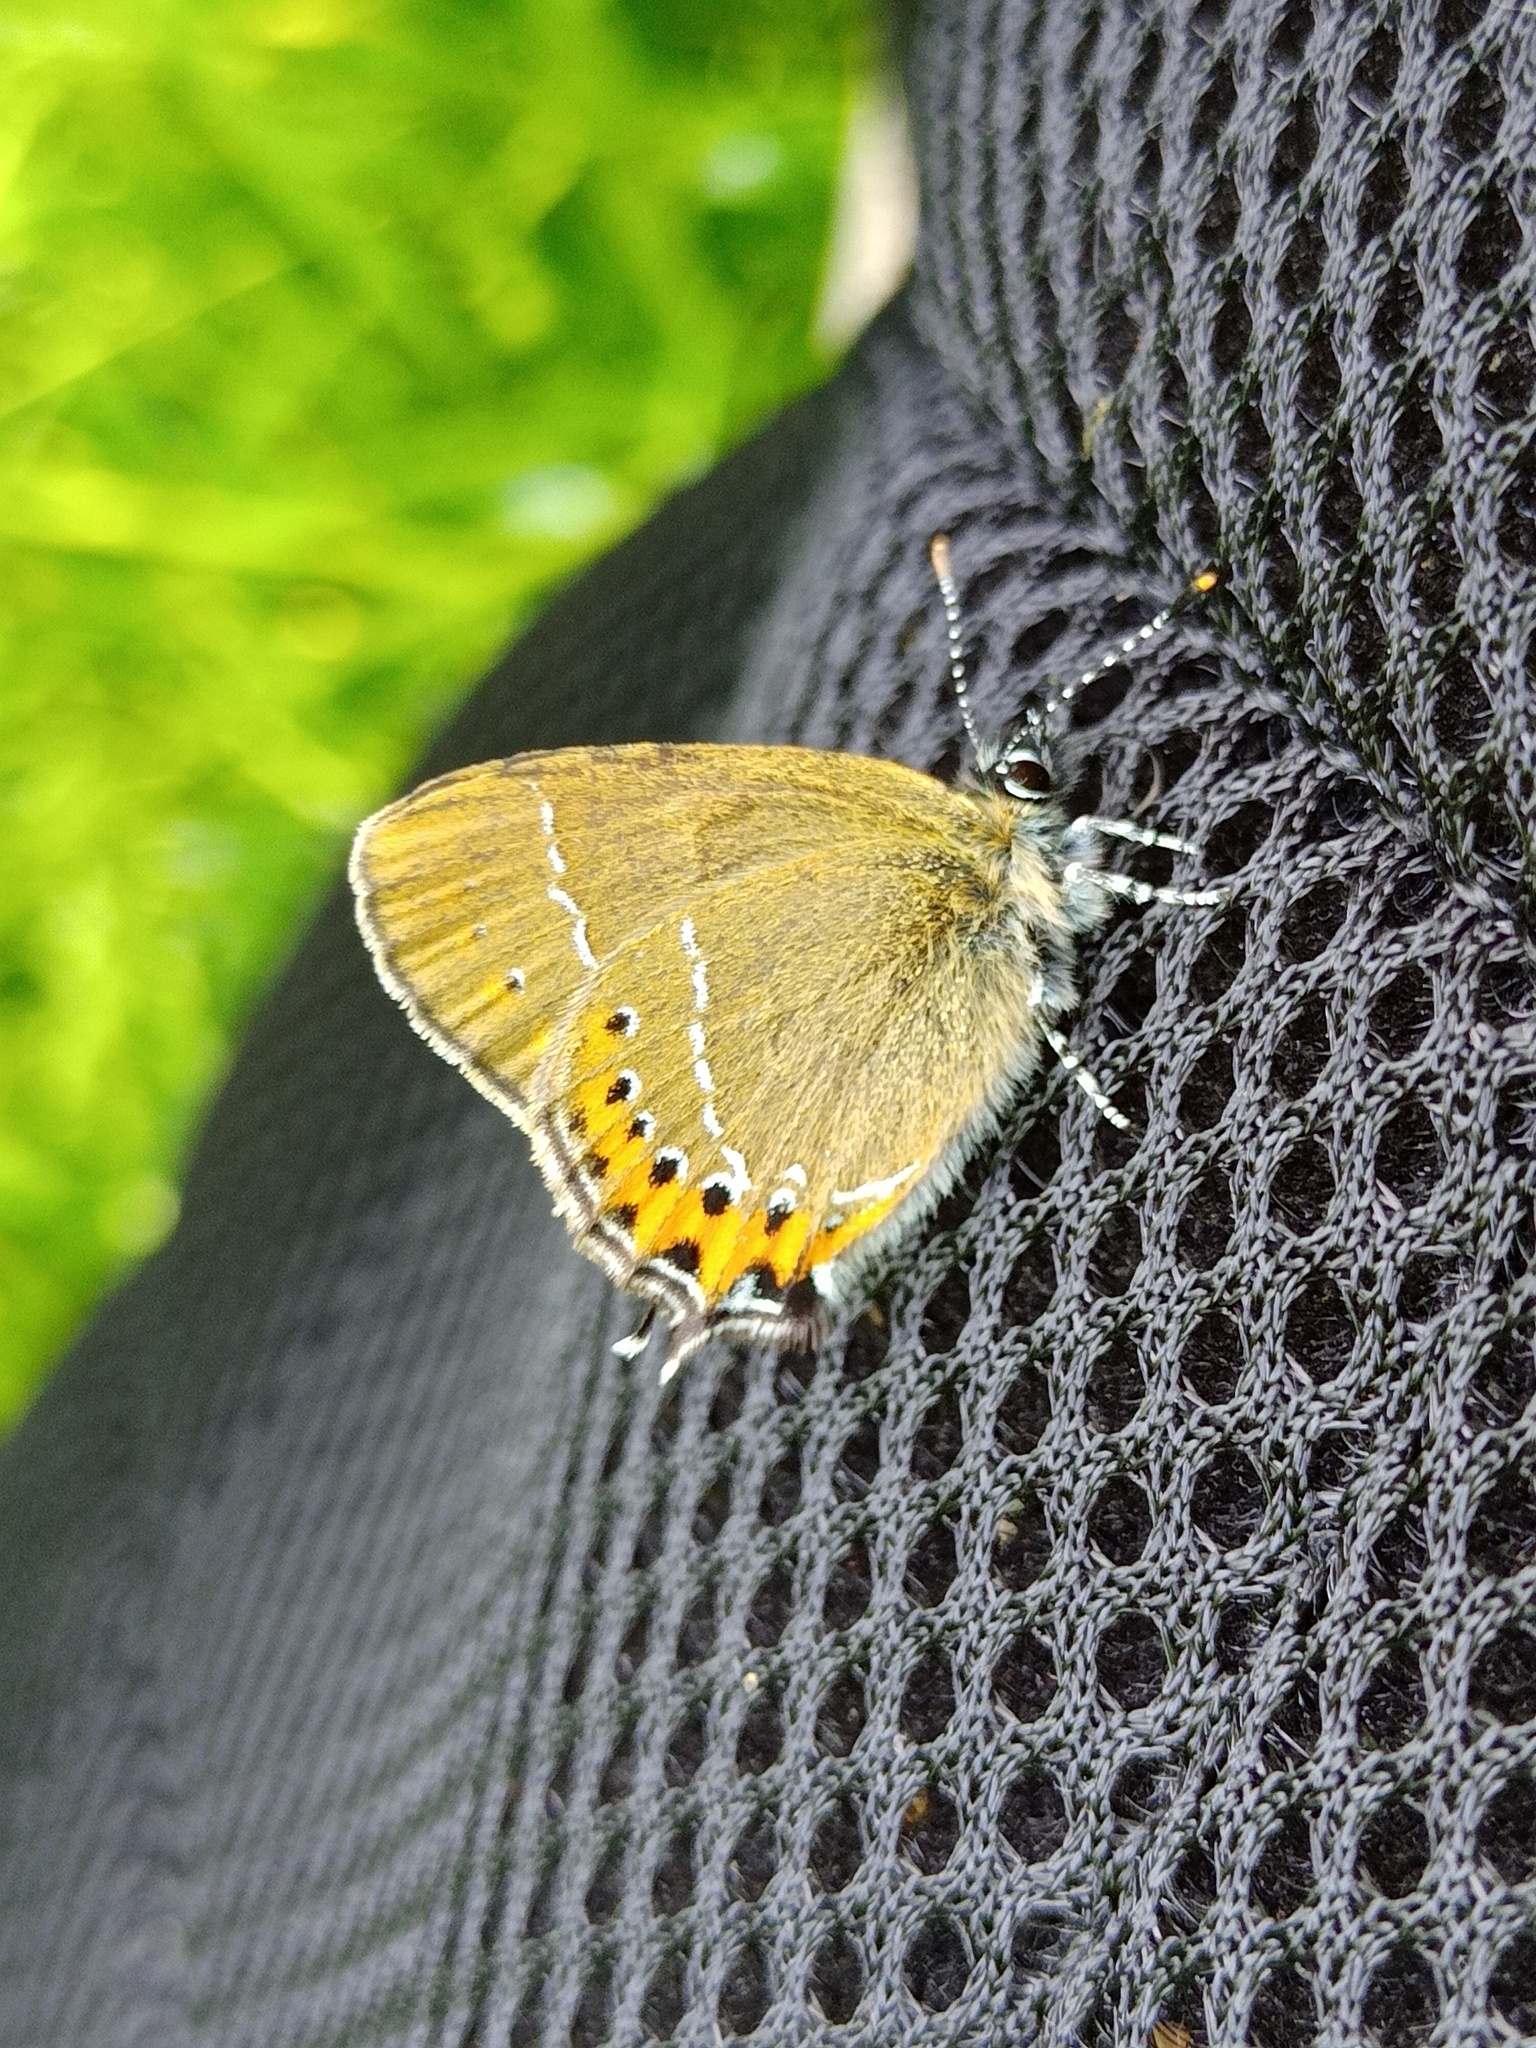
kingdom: Animalia
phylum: Arthropoda
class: Insecta
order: Lepidoptera
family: Lycaenidae
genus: Fixsenia
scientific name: Fixsenia pruni
